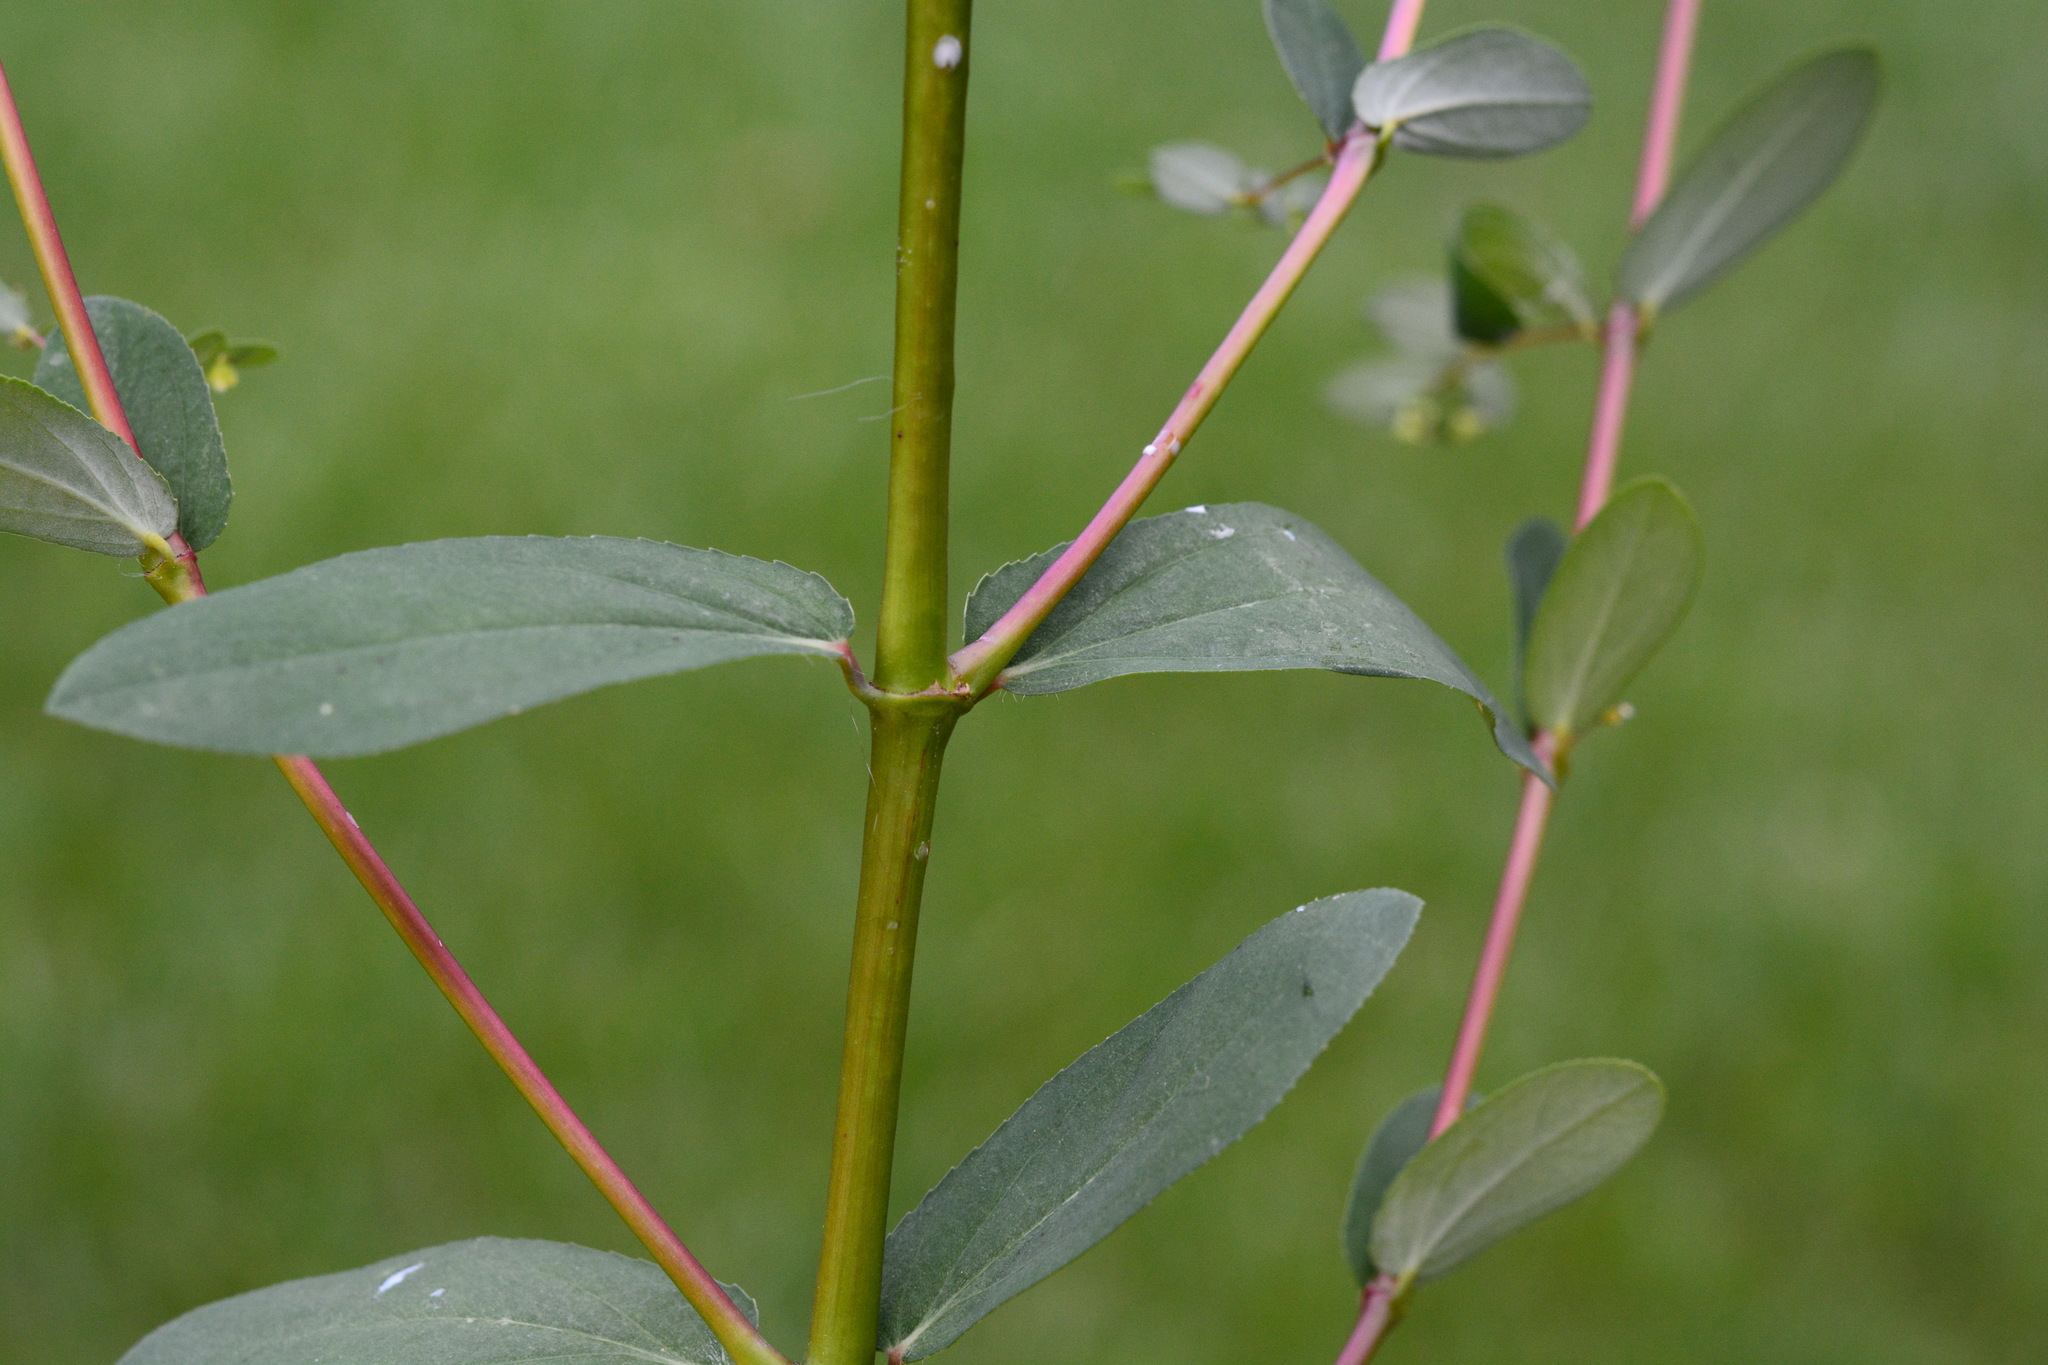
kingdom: Plantae
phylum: Tracheophyta
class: Magnoliopsida
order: Malpighiales
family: Euphorbiaceae
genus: Euphorbia
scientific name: Euphorbia hyssopifolia
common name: Hyssopleaf sandmat
